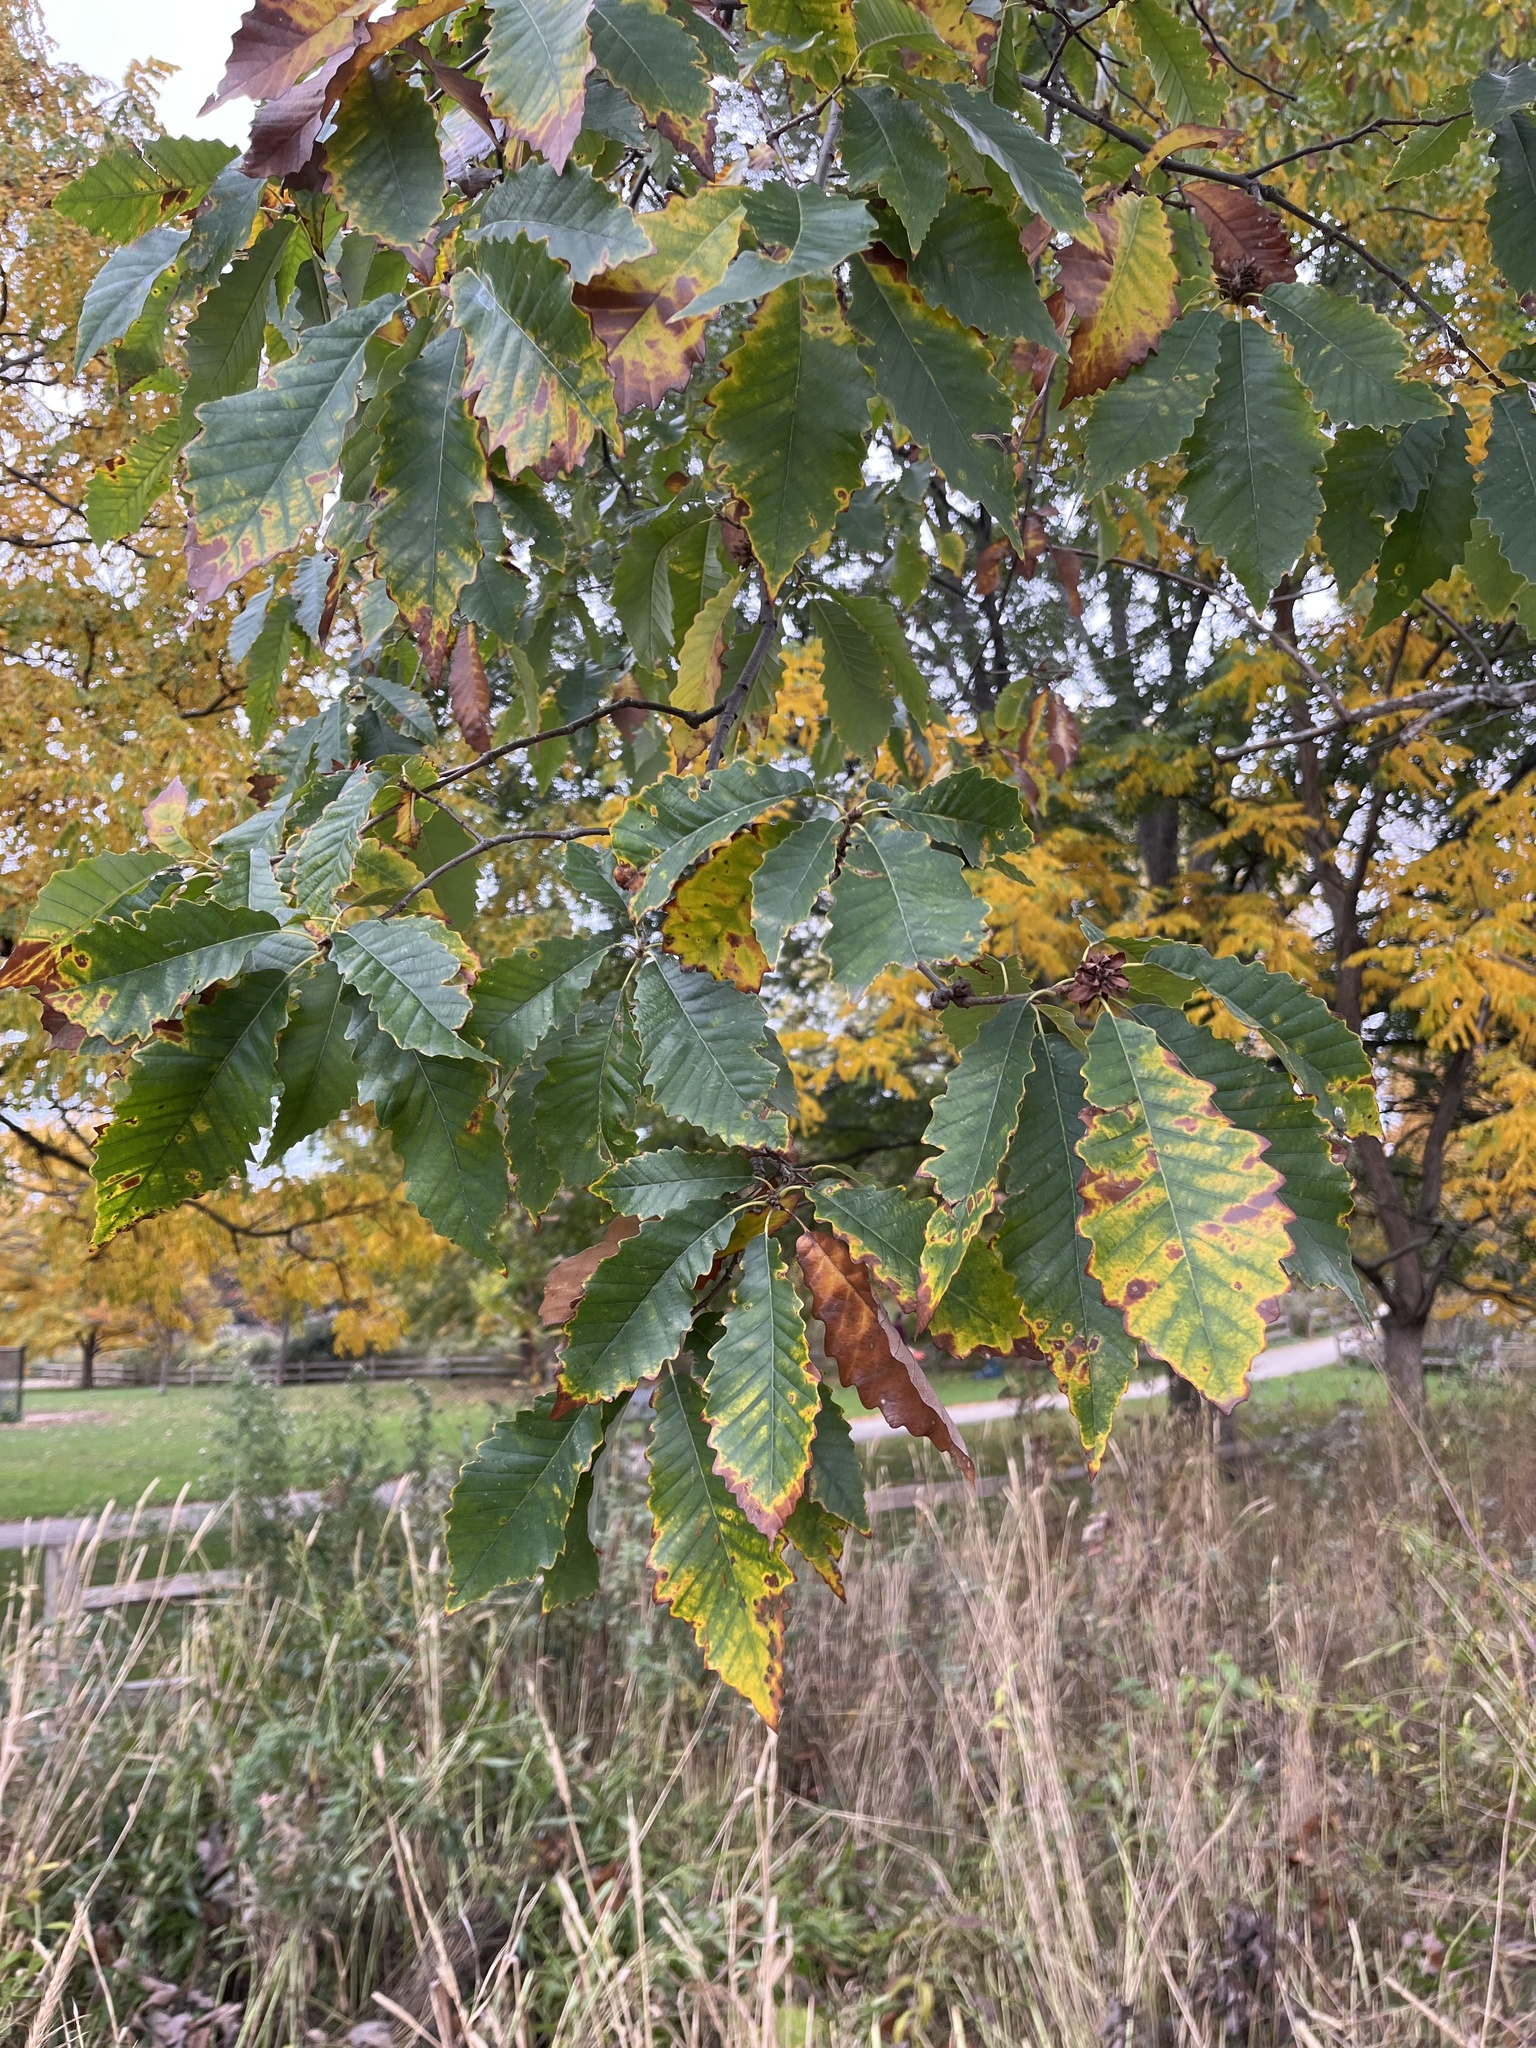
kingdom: Plantae
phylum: Tracheophyta
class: Magnoliopsida
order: Fagales
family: Fagaceae
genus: Quercus
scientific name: Quercus muehlenbergii
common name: Chinkapin oak
